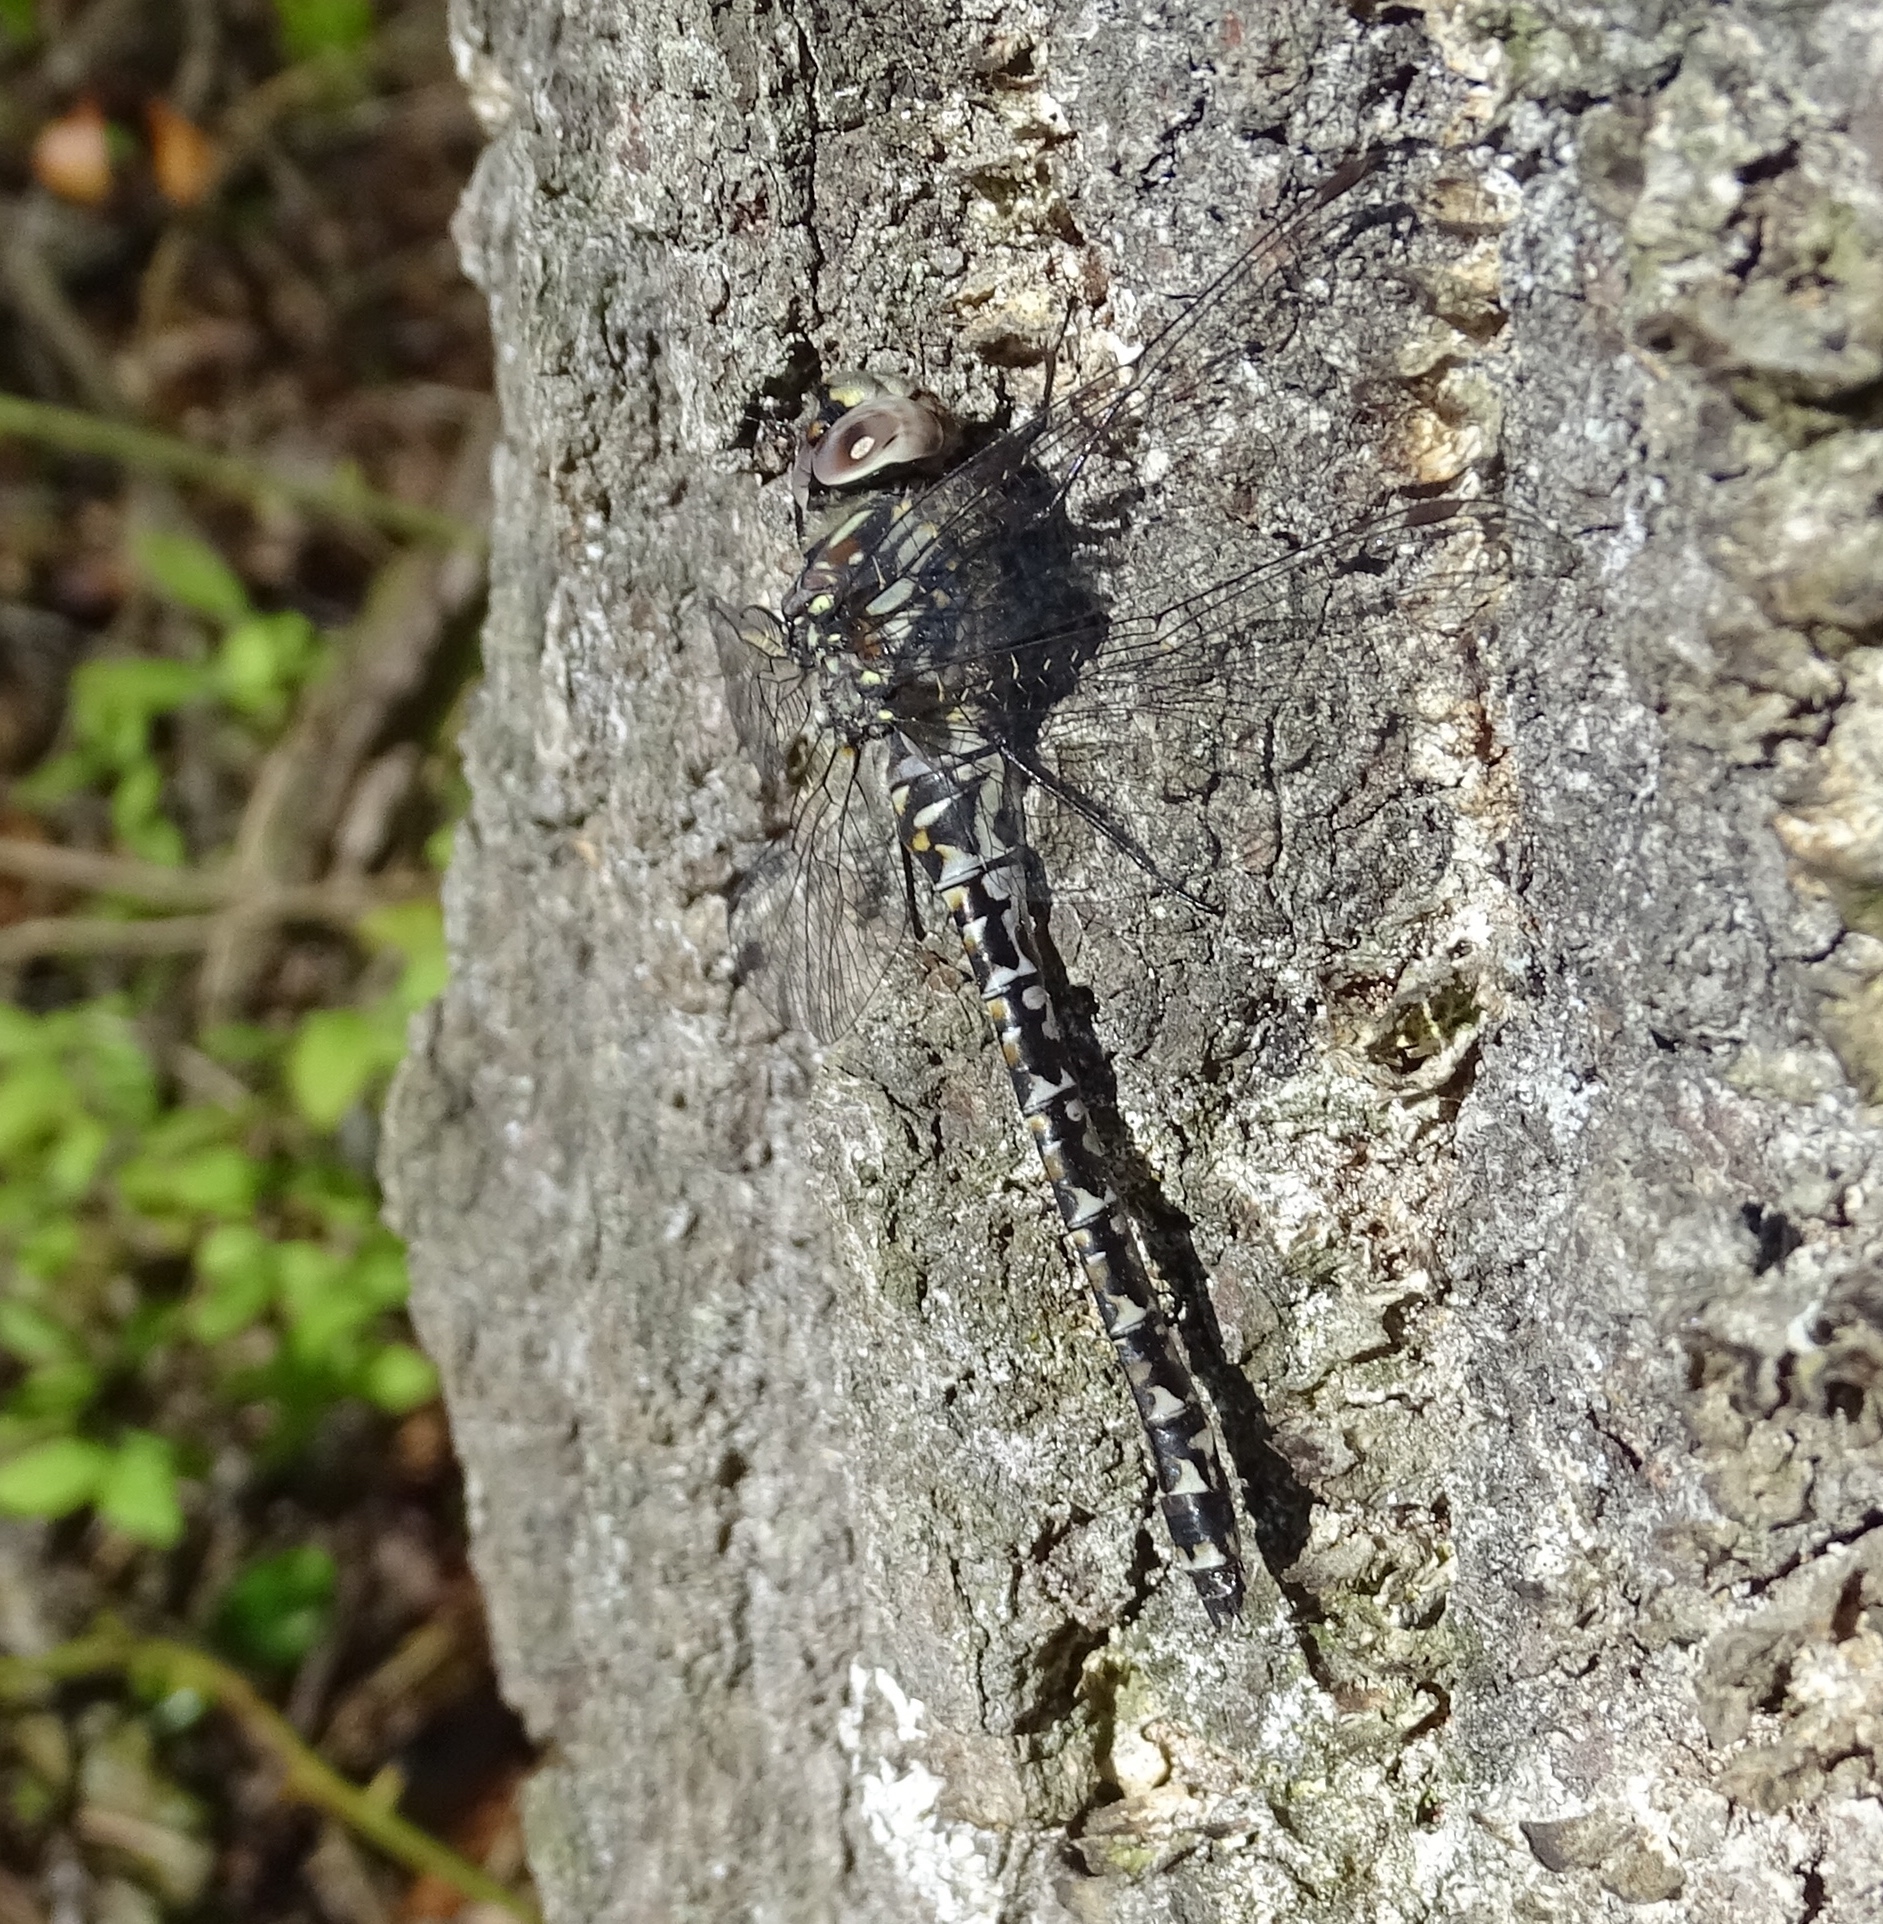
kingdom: Animalia
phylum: Arthropoda
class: Insecta
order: Odonata
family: Aeshnidae
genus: Gomphaeschna
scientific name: Gomphaeschna furcillata
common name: Harlequin darner
